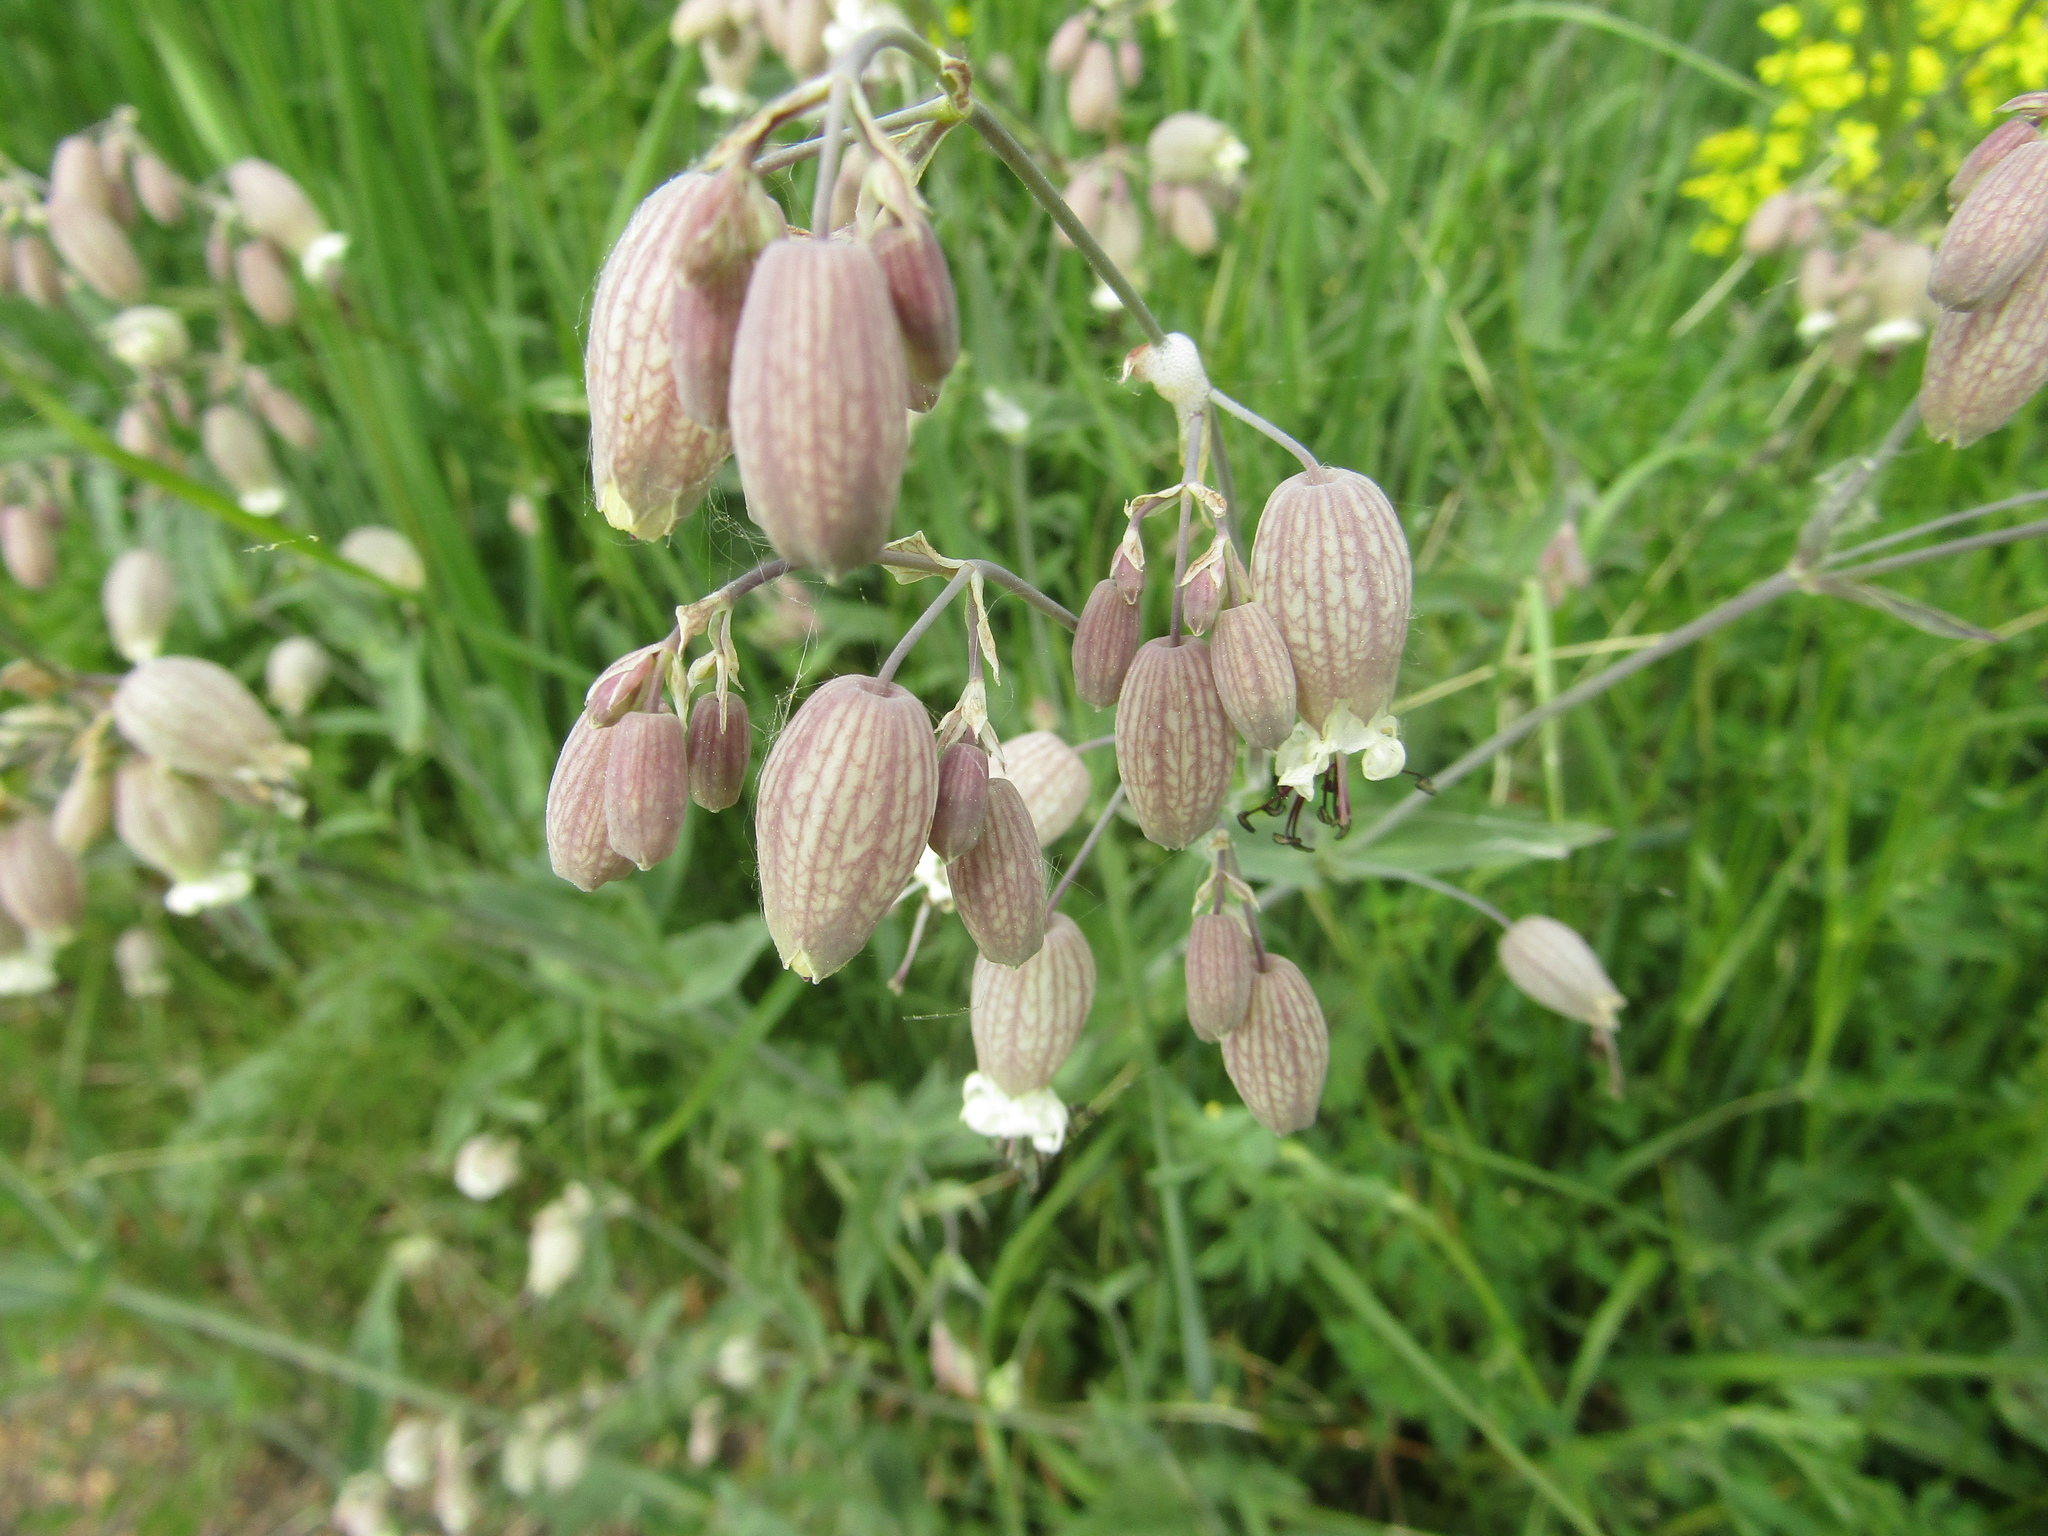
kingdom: Plantae
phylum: Tracheophyta
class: Magnoliopsida
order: Caryophyllales
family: Caryophyllaceae
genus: Silene
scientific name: Silene vulgaris
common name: Bladder campion
